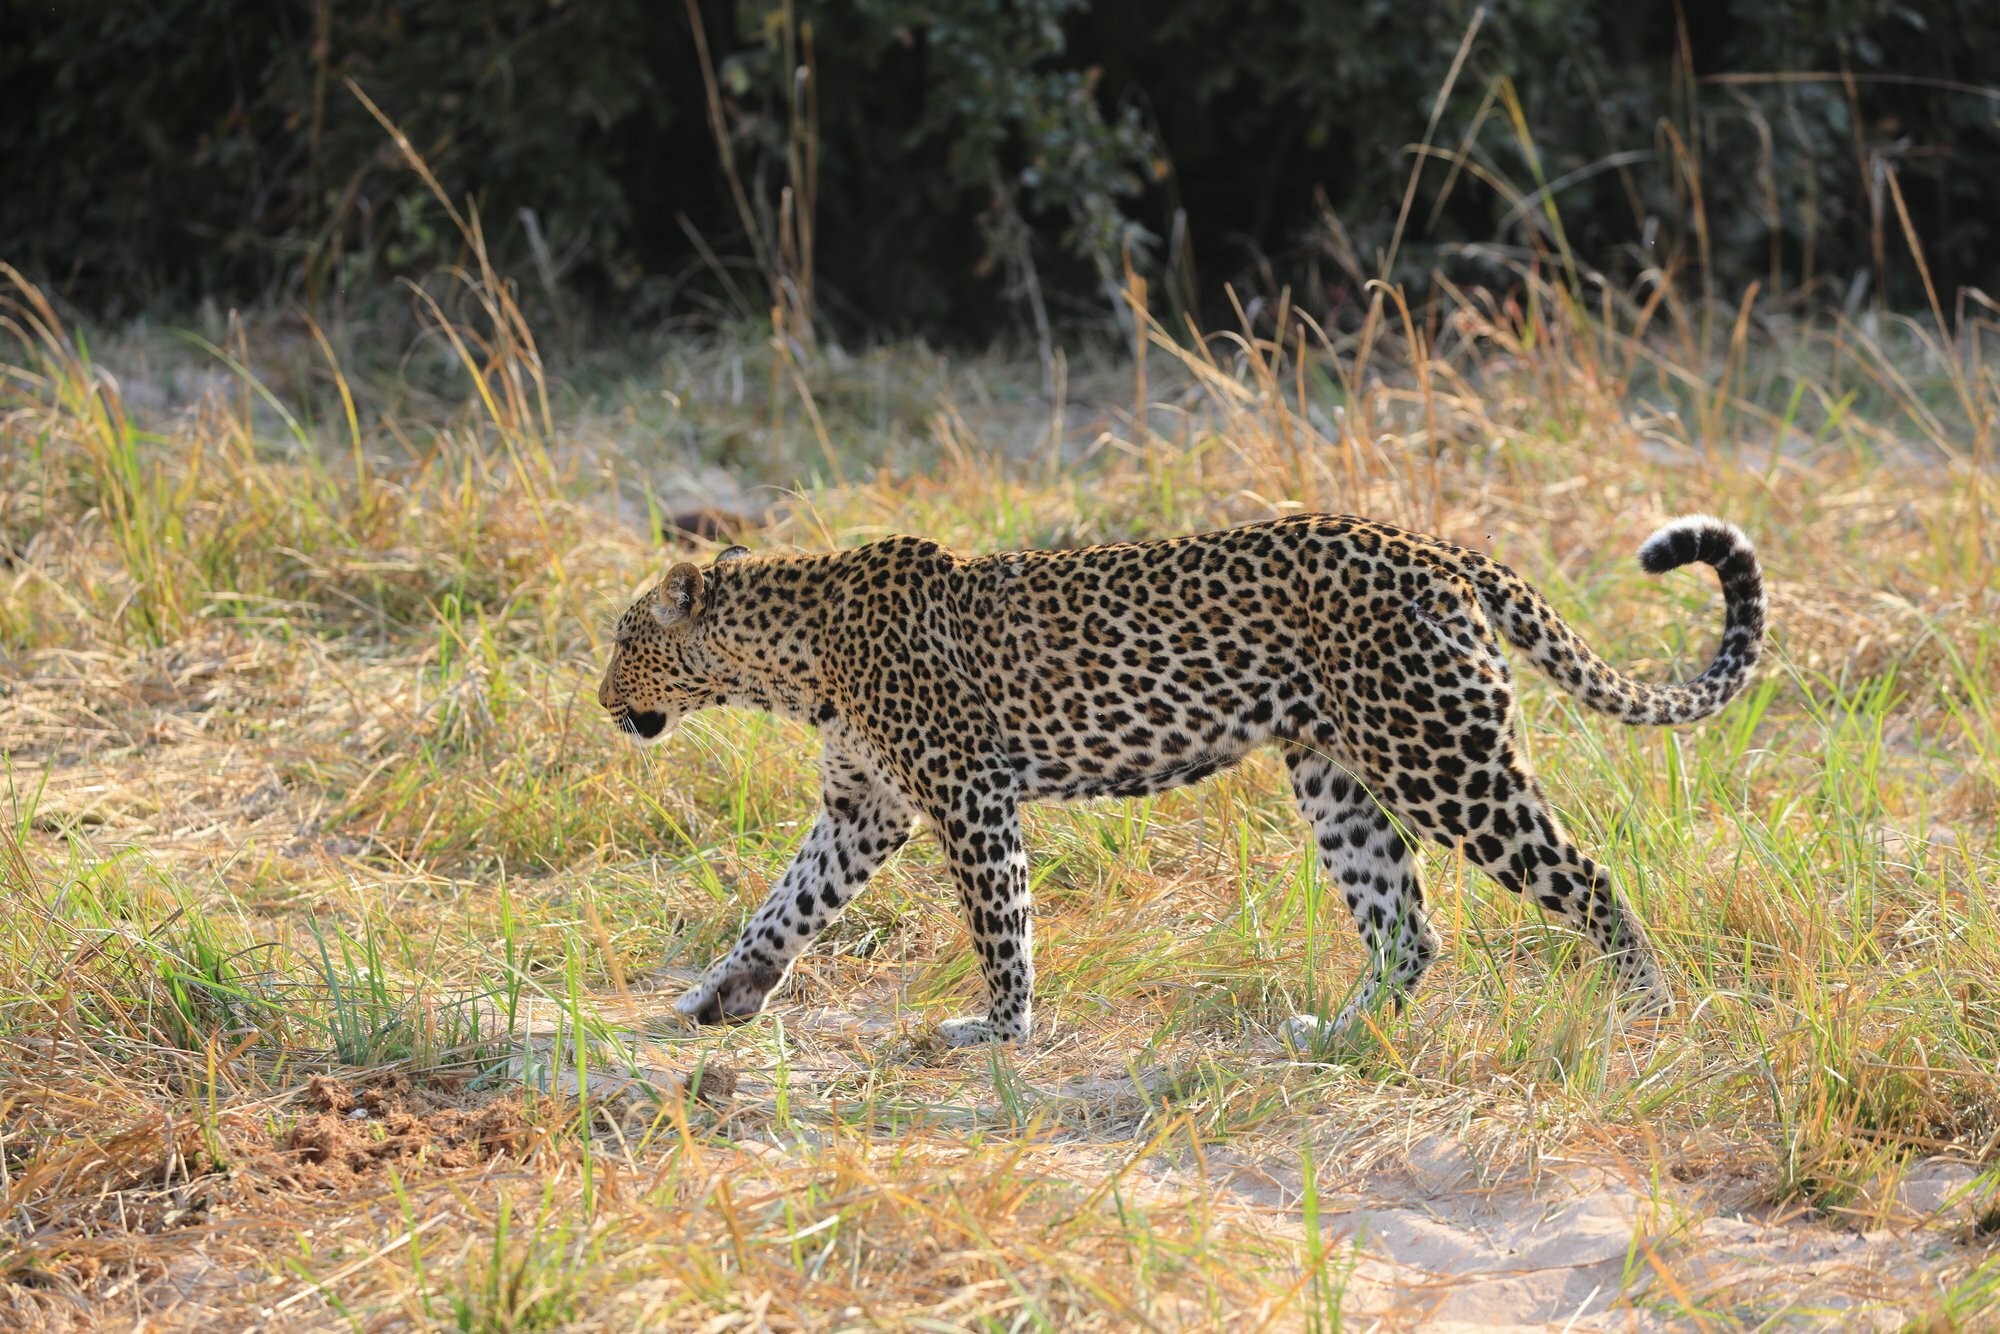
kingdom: Animalia
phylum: Chordata
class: Mammalia
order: Carnivora
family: Felidae
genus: Panthera
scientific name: Panthera pardus
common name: Leopard
